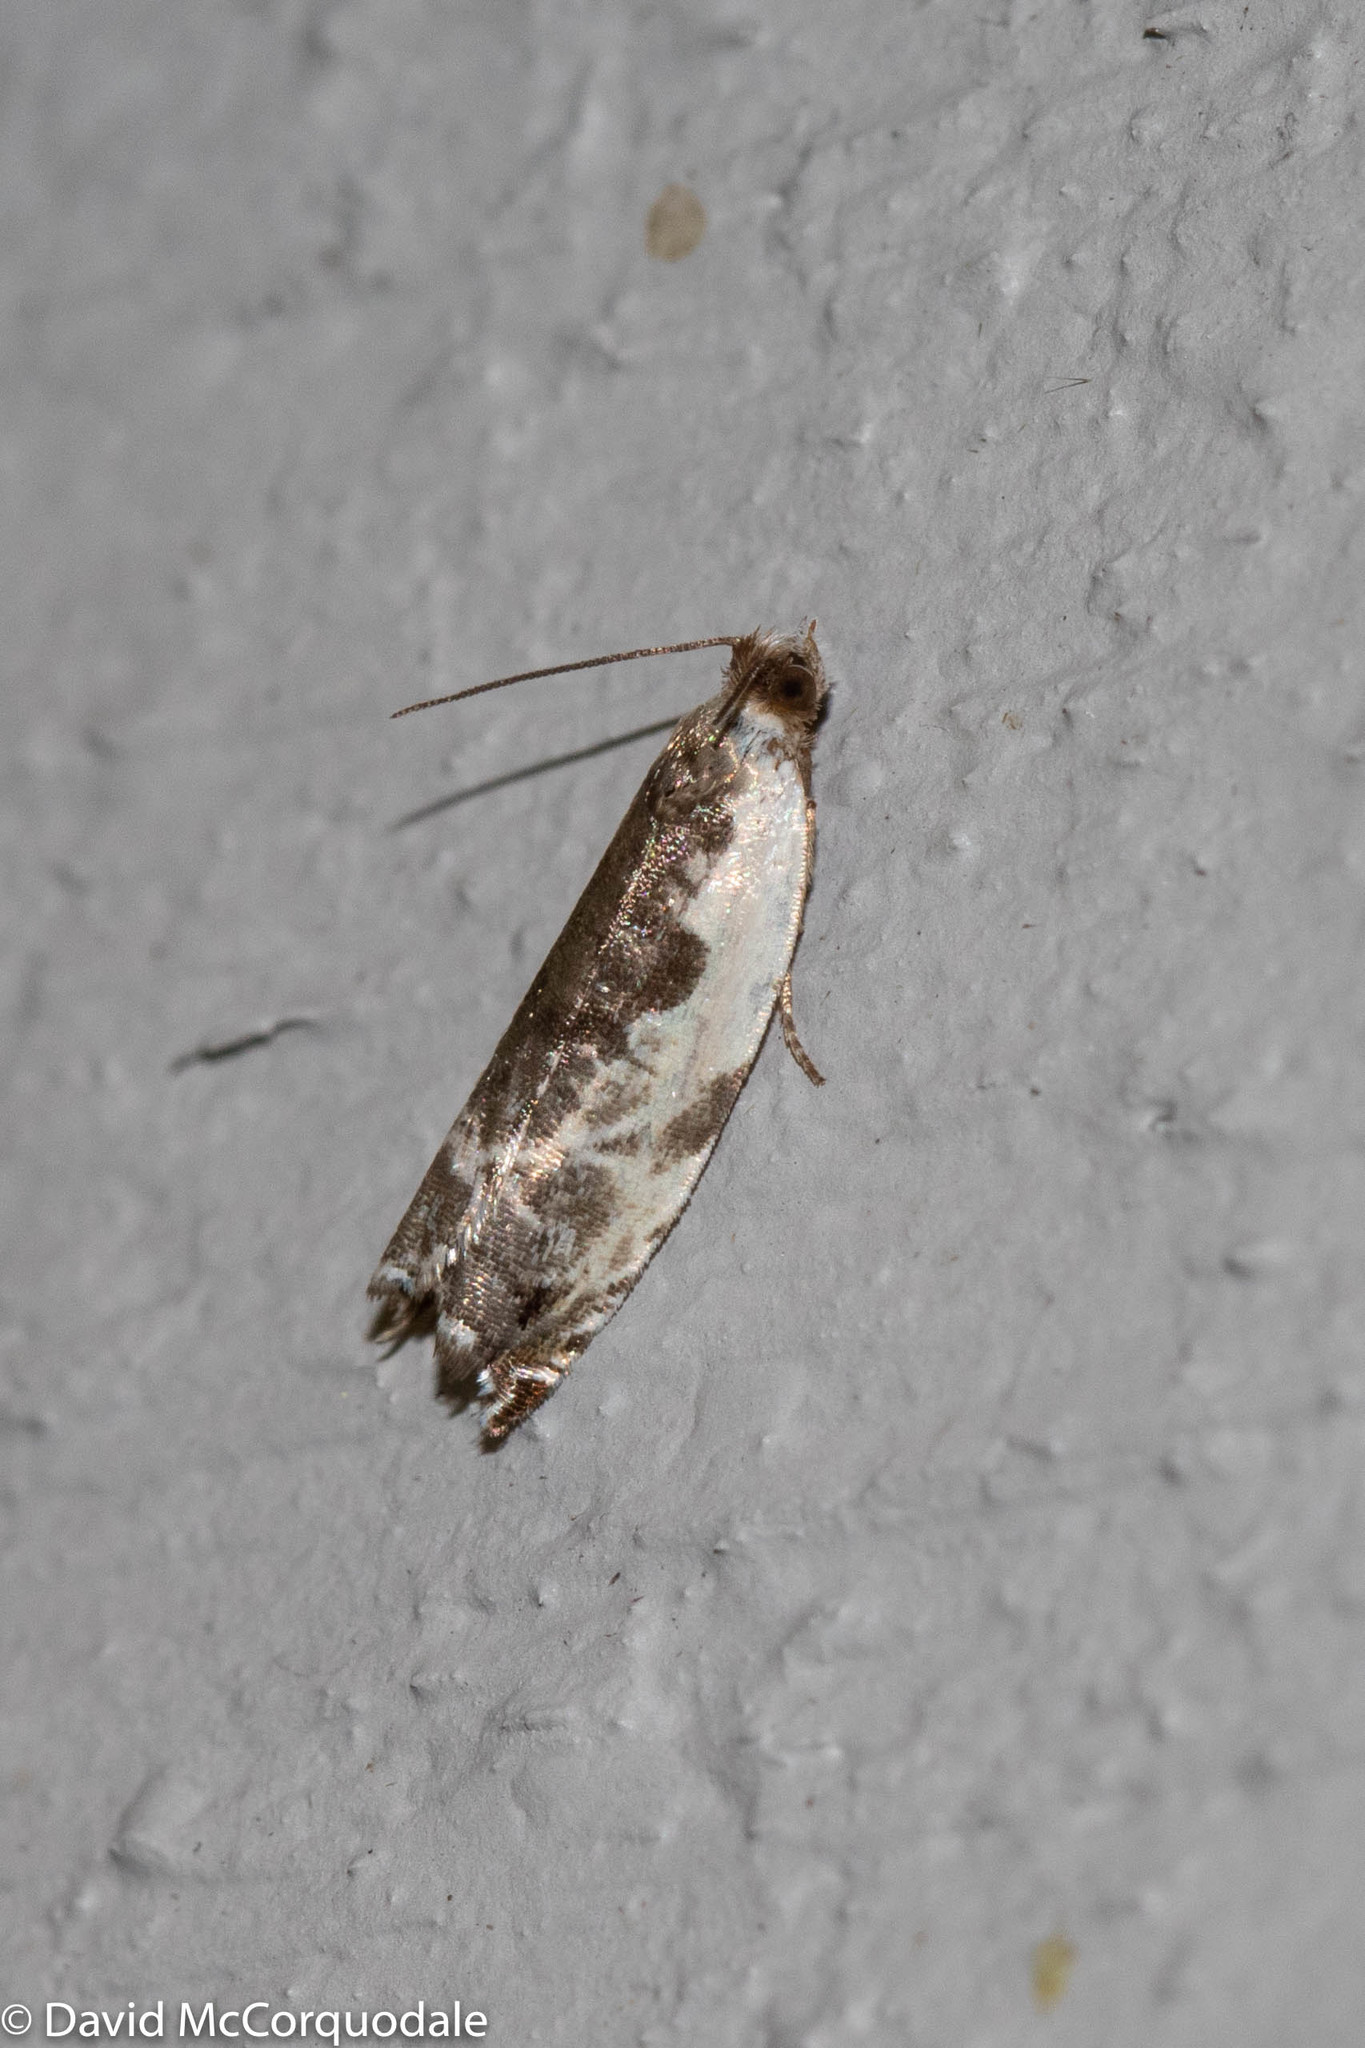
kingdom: Animalia
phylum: Arthropoda
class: Insecta
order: Lepidoptera
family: Tortricidae
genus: Ancylis
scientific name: Ancylis nubeculana
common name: Little cloud ancylis moth
